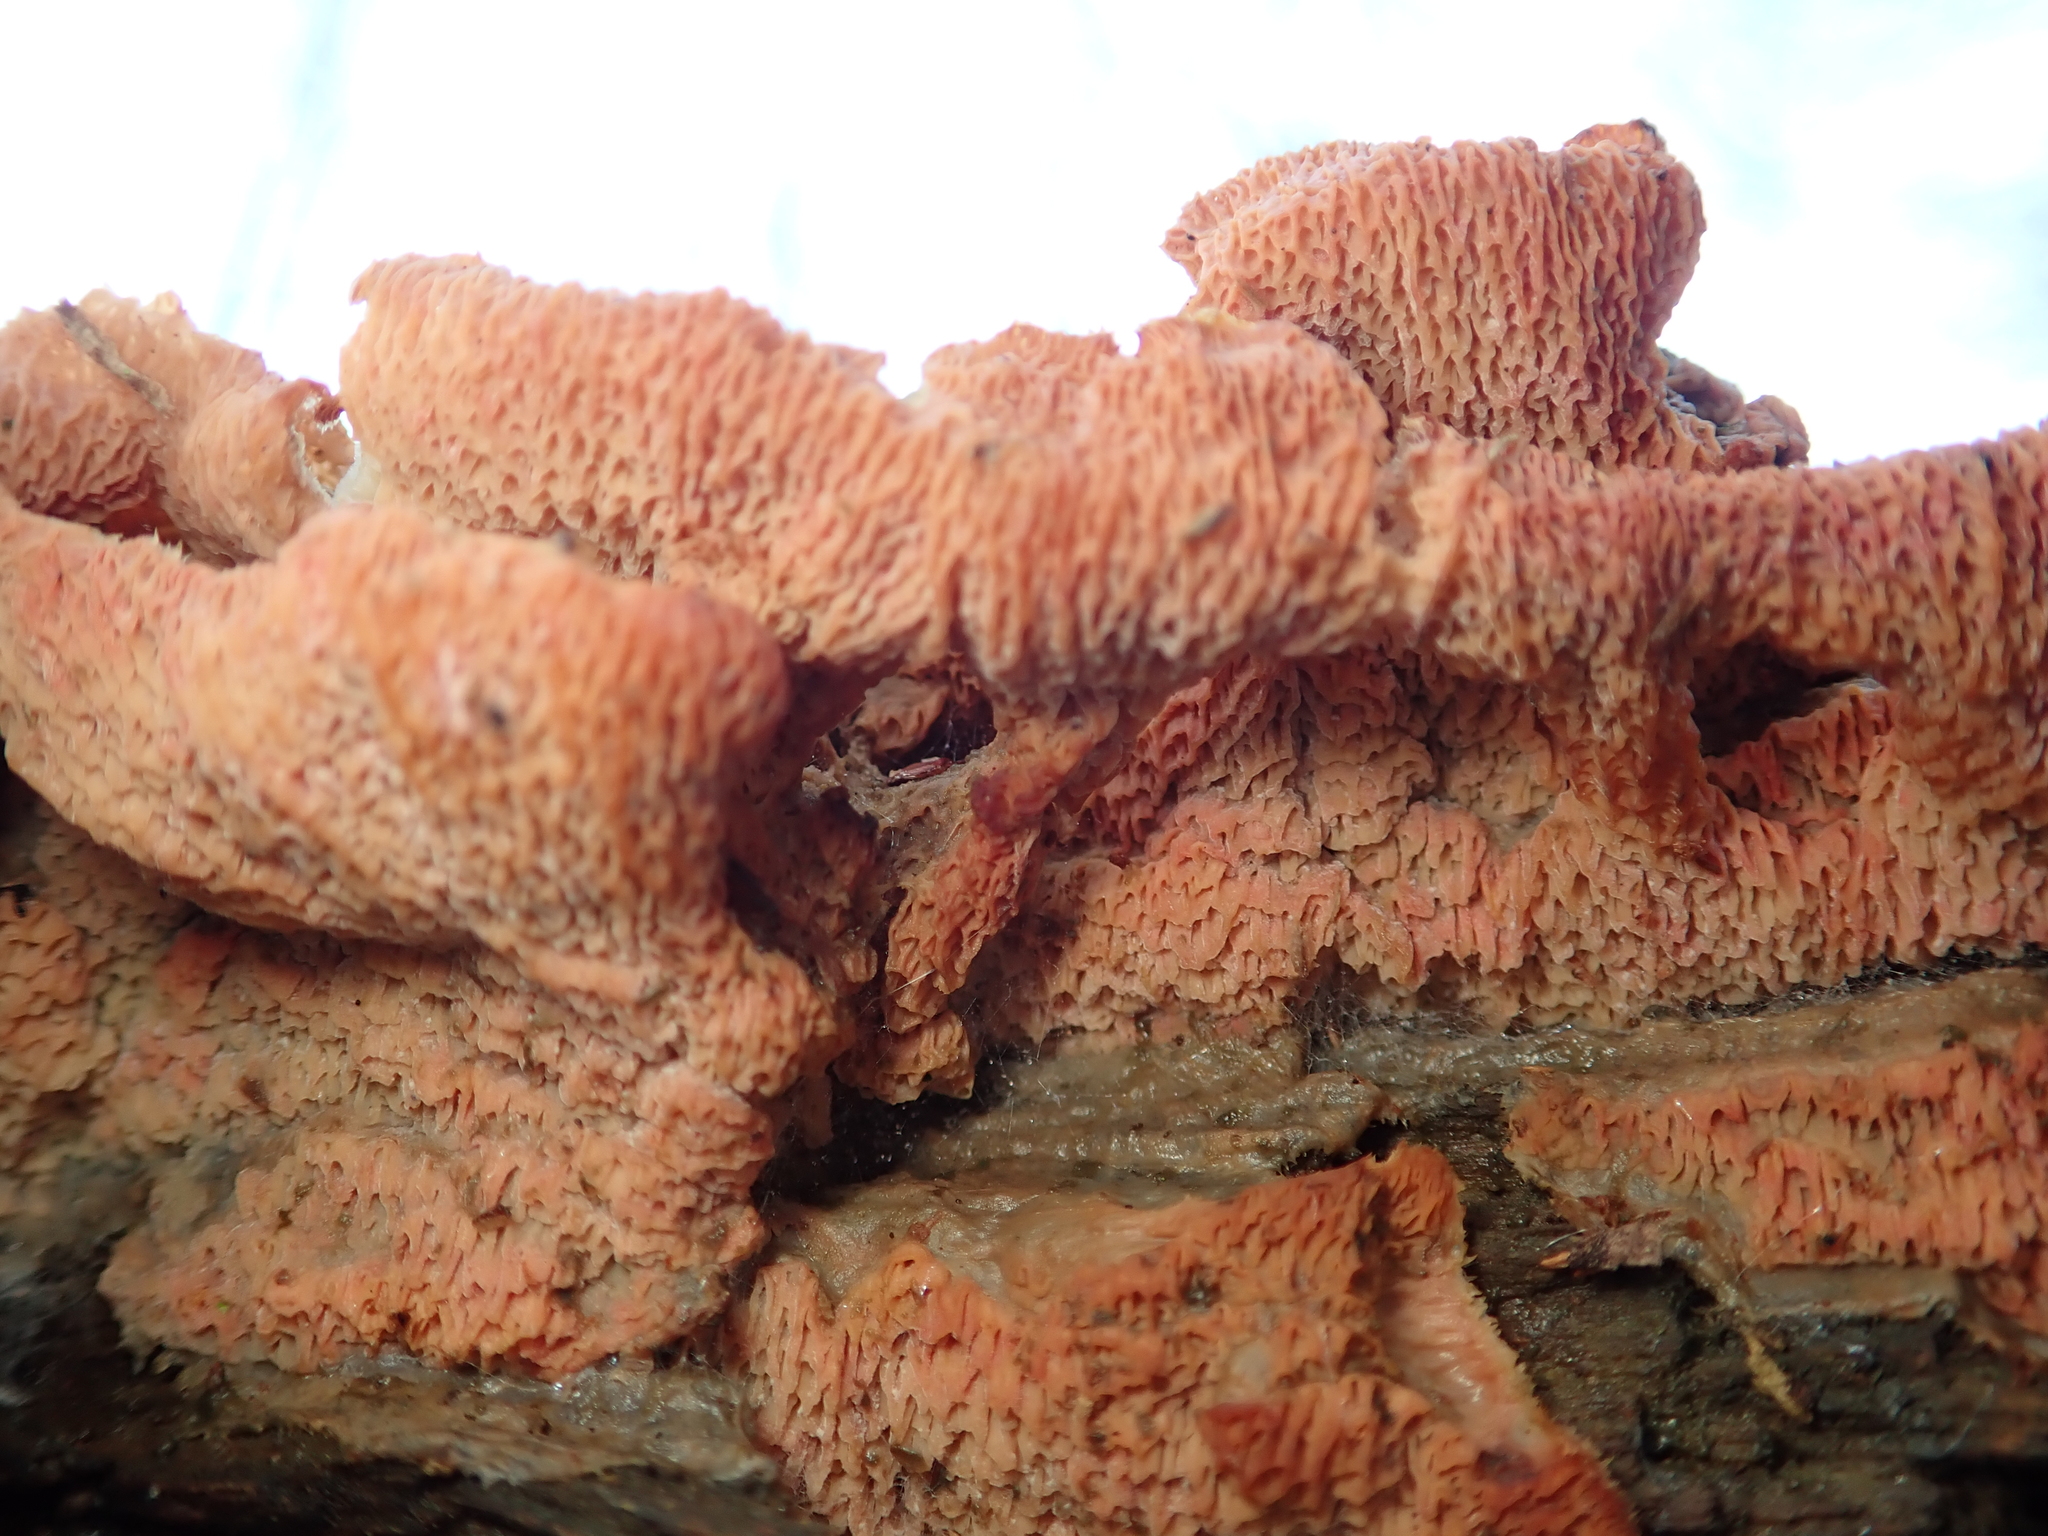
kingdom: Fungi
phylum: Basidiomycota
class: Agaricomycetes
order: Polyporales
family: Meruliaceae
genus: Phlebia
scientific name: Phlebia tremellosa
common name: Jelly rot
